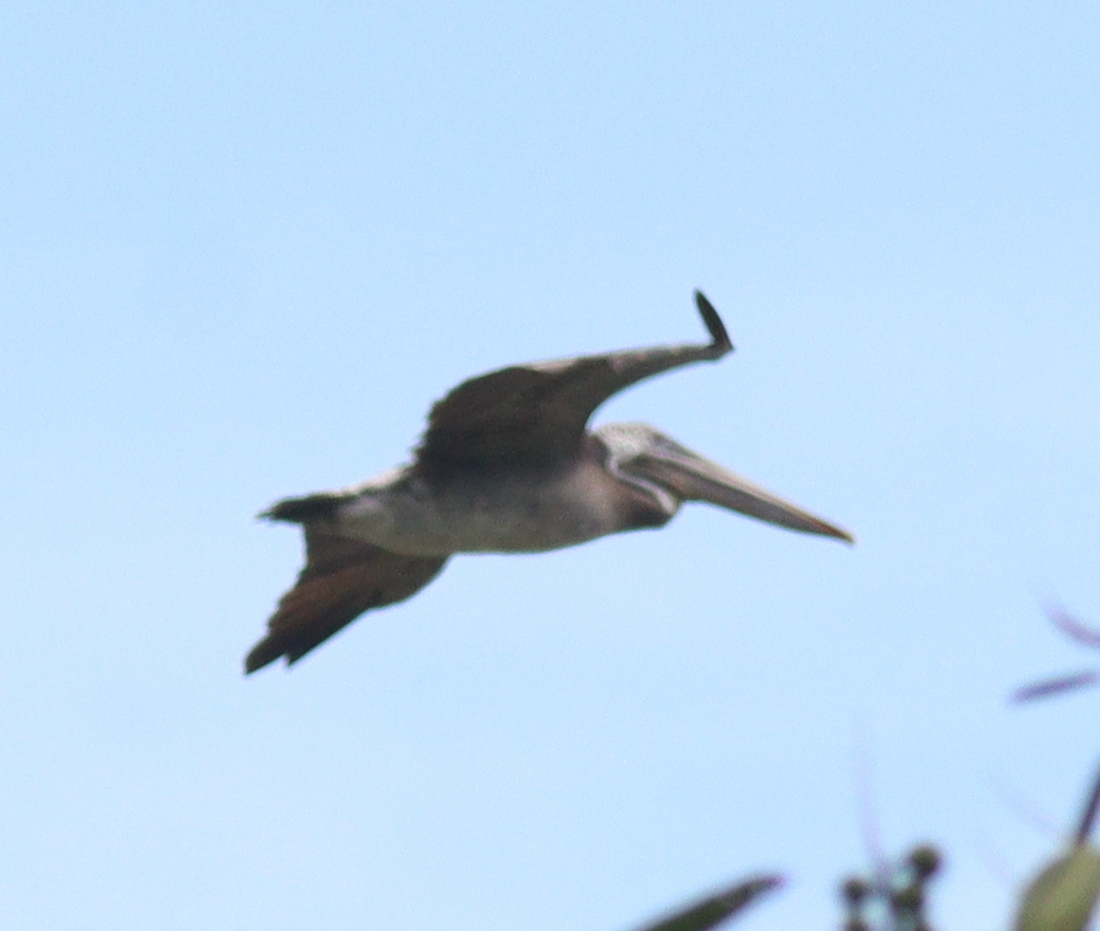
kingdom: Animalia
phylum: Chordata
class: Aves
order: Pelecaniformes
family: Pelecanidae
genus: Pelecanus
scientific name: Pelecanus occidentalis
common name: Brown pelican
